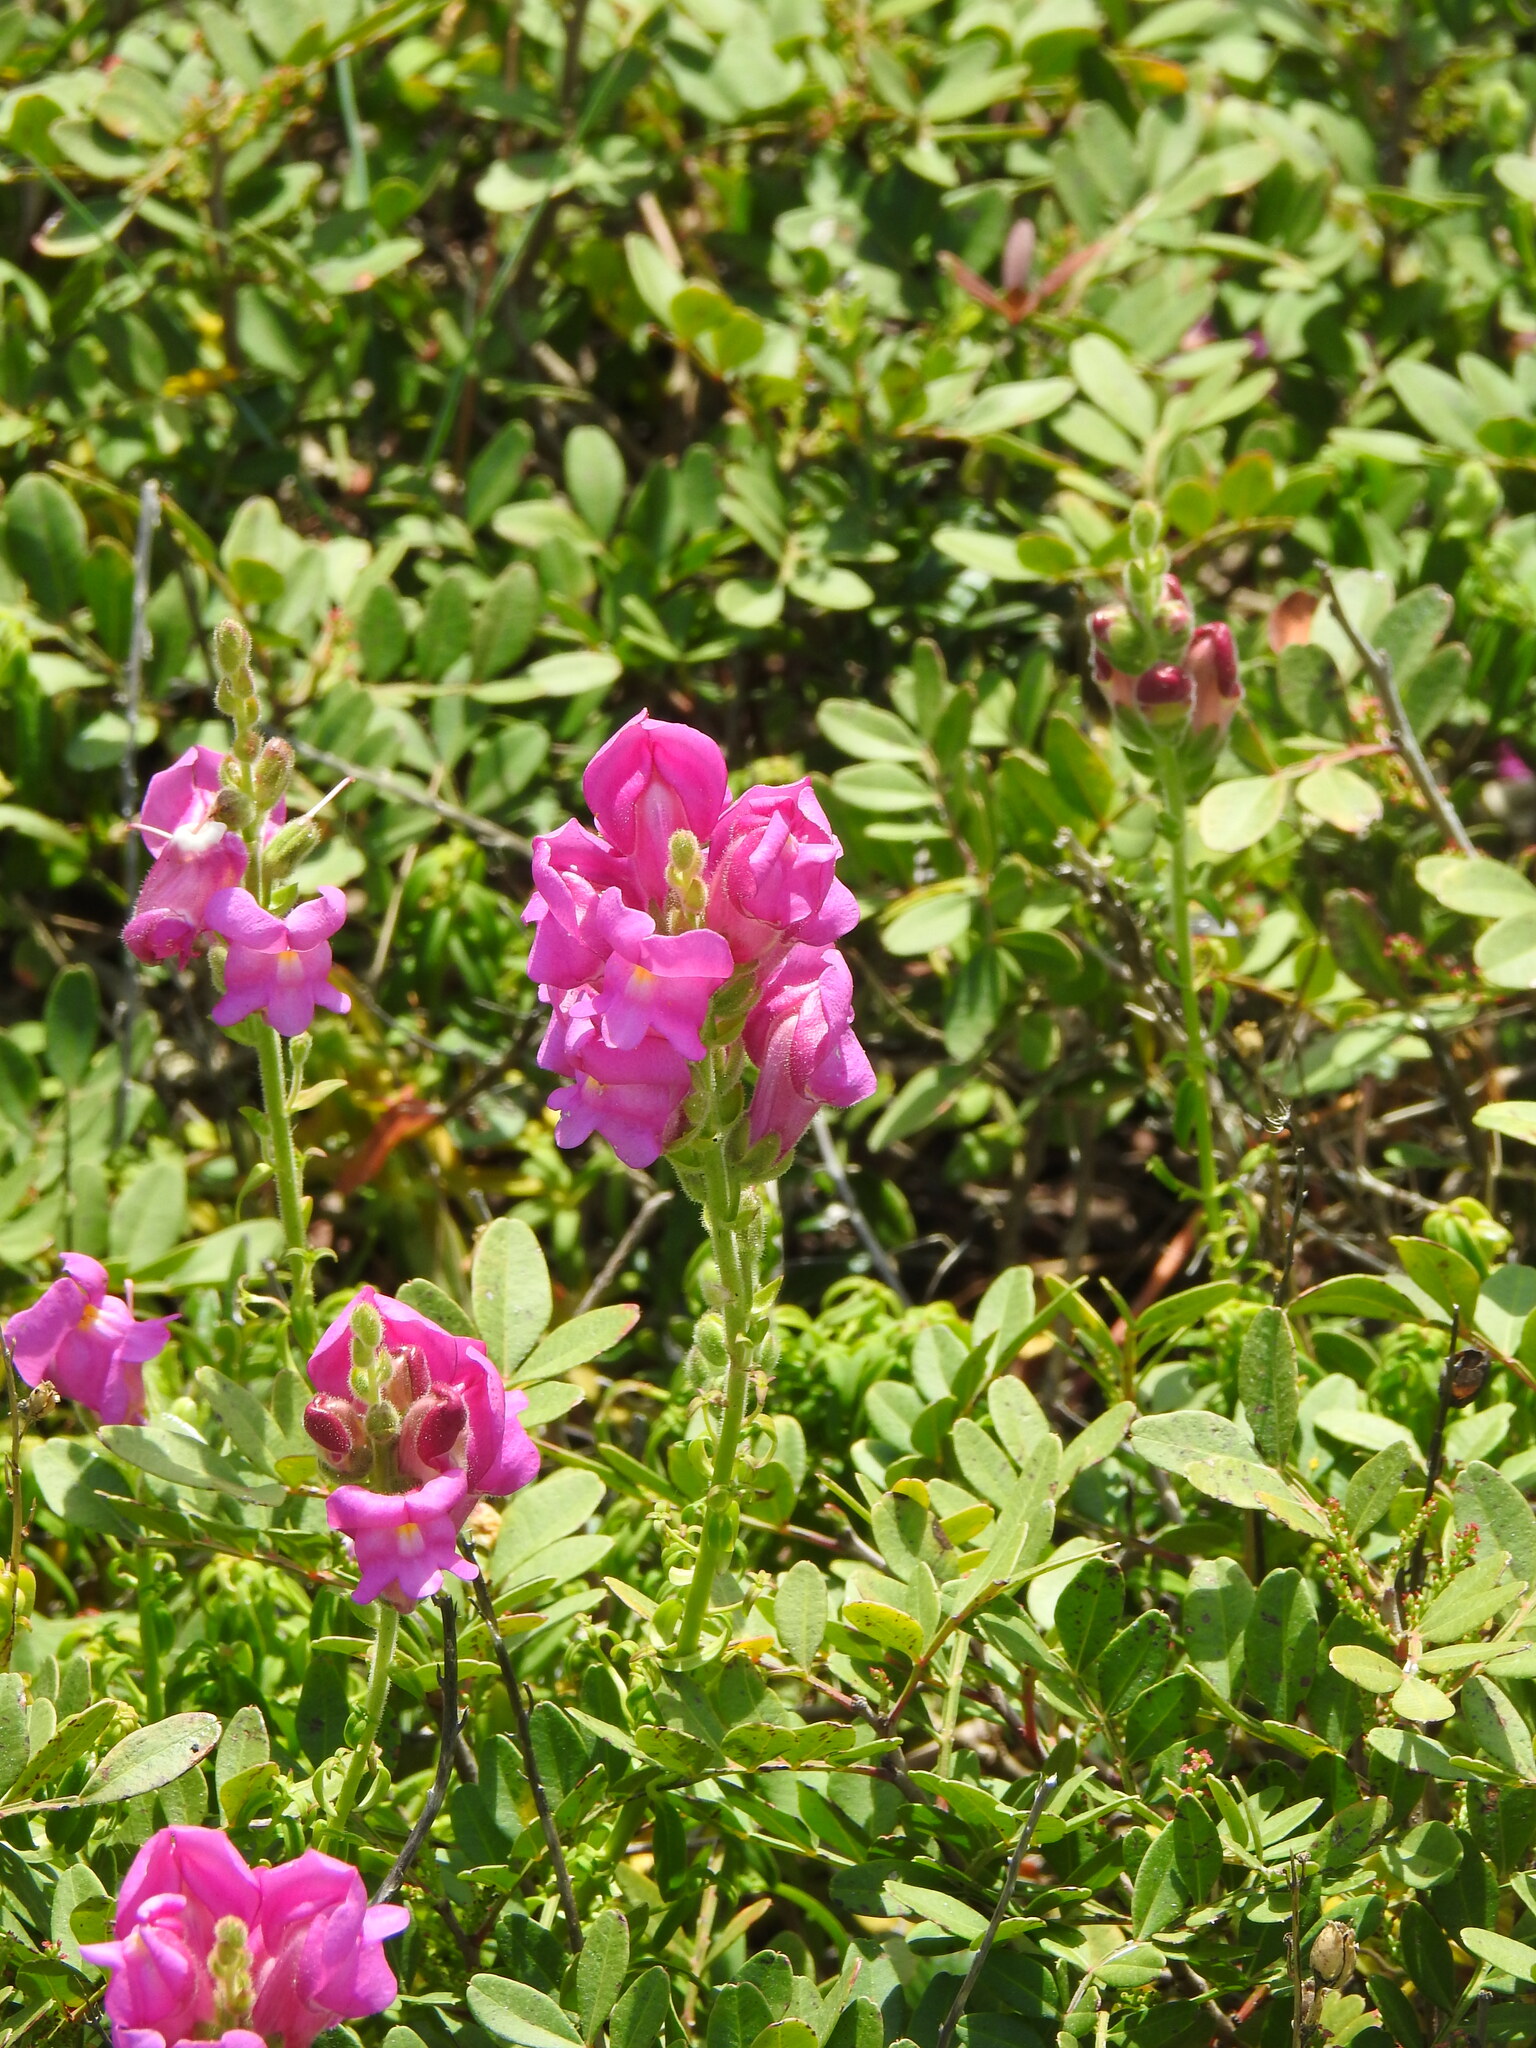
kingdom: Plantae
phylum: Tracheophyta
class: Magnoliopsida
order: Lamiales
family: Plantaginaceae
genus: Antirrhinum
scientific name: Antirrhinum cirrhigerum
